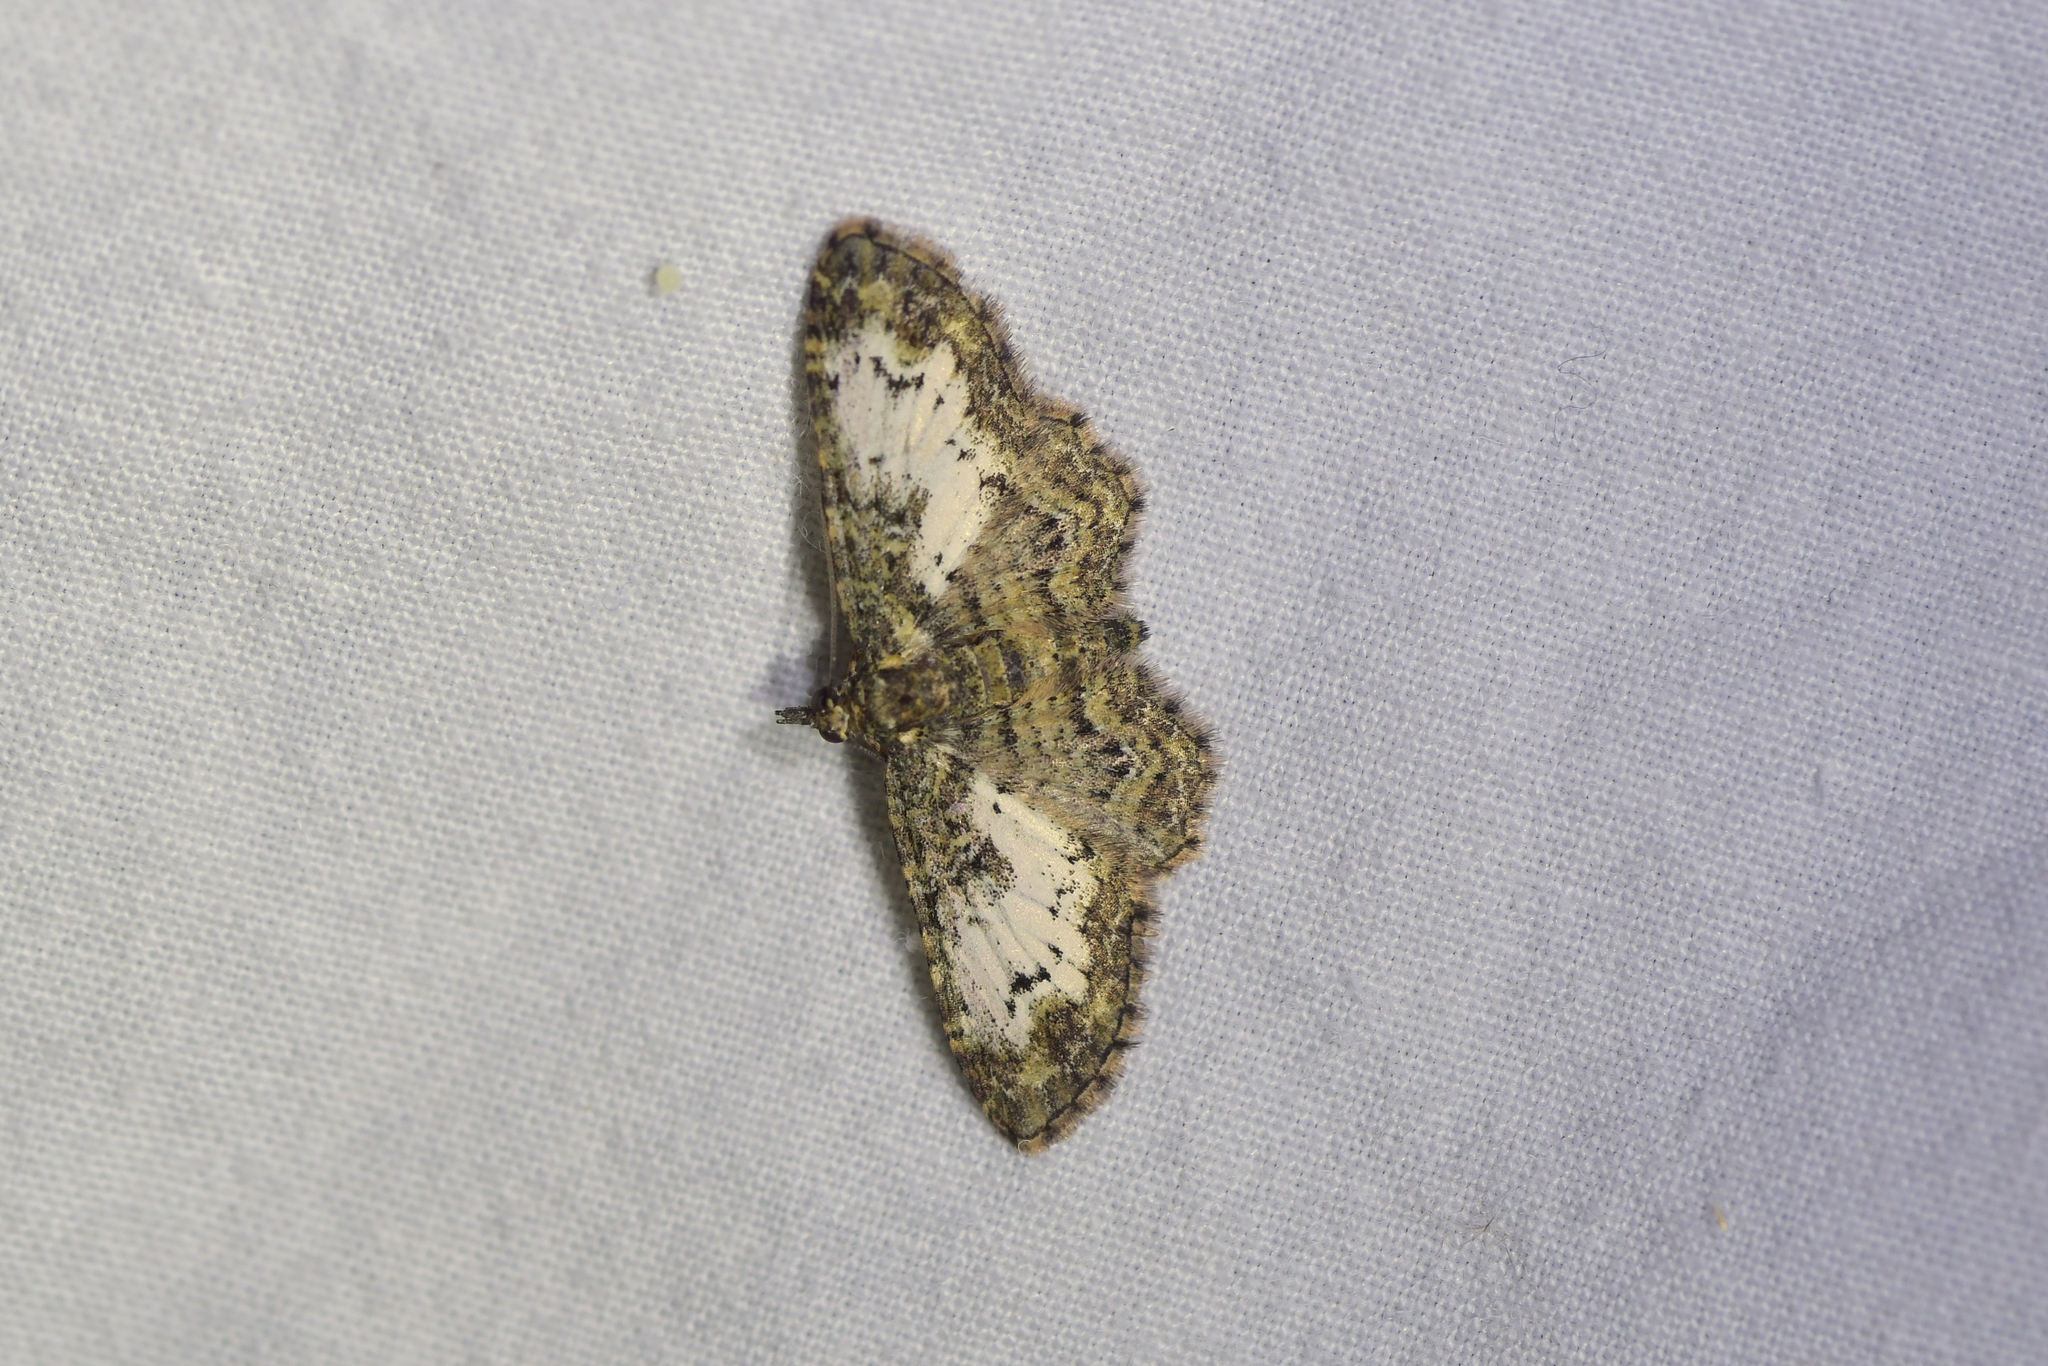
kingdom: Animalia
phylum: Arthropoda
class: Insecta
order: Lepidoptera
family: Geometridae
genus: Pasiphilodes
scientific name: Pasiphilodes testulata
